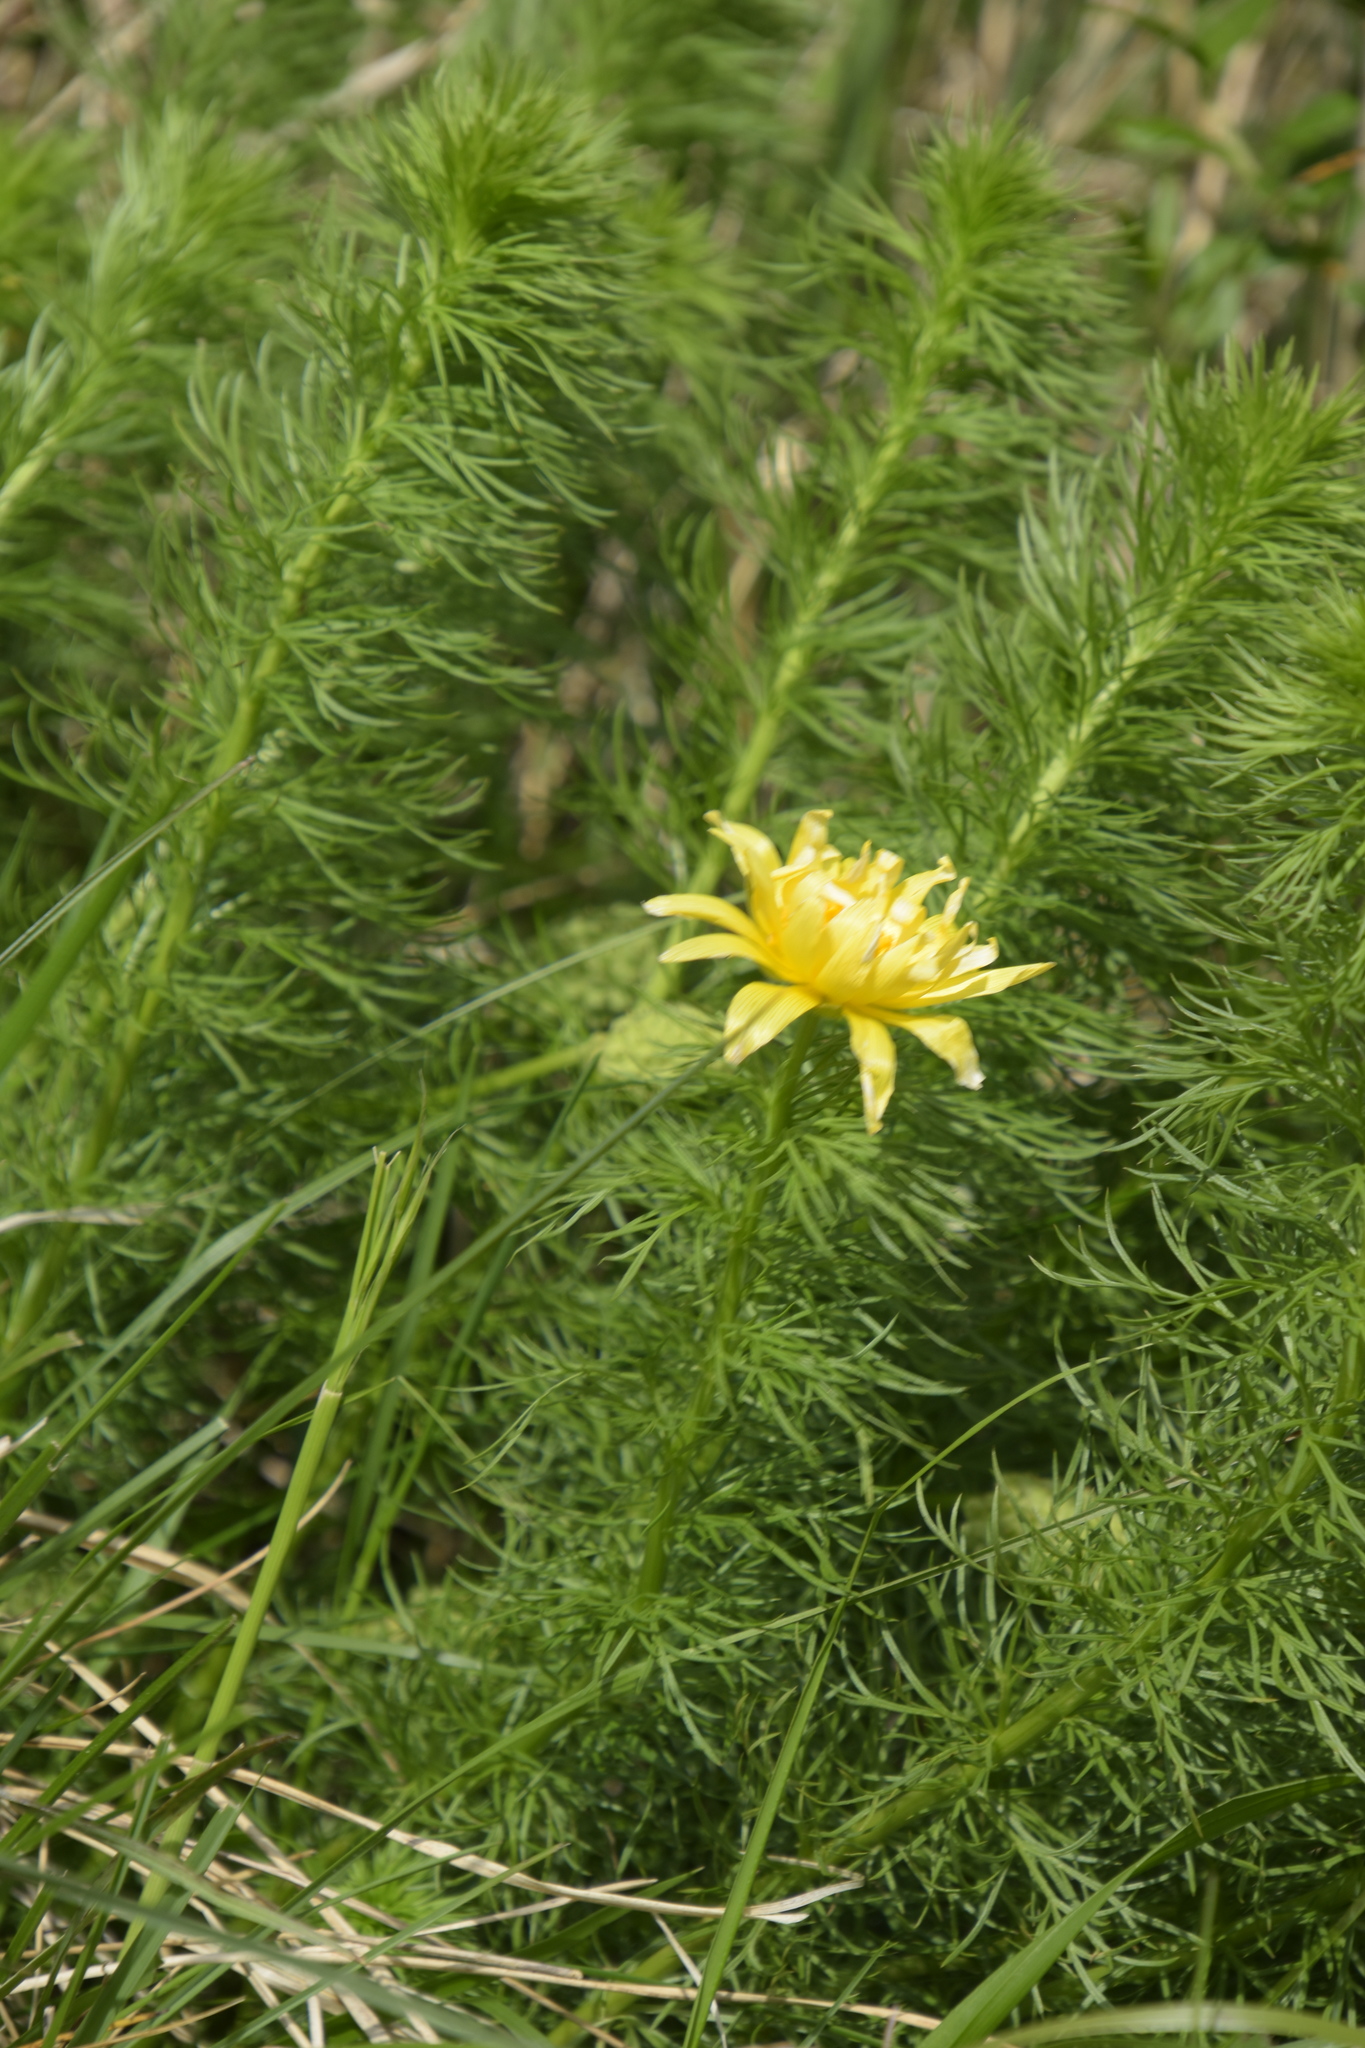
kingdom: Plantae
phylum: Tracheophyta
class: Magnoliopsida
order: Ranunculales
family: Ranunculaceae
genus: Adonis
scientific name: Adonis vernalis
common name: Yellow pheasants-eye
